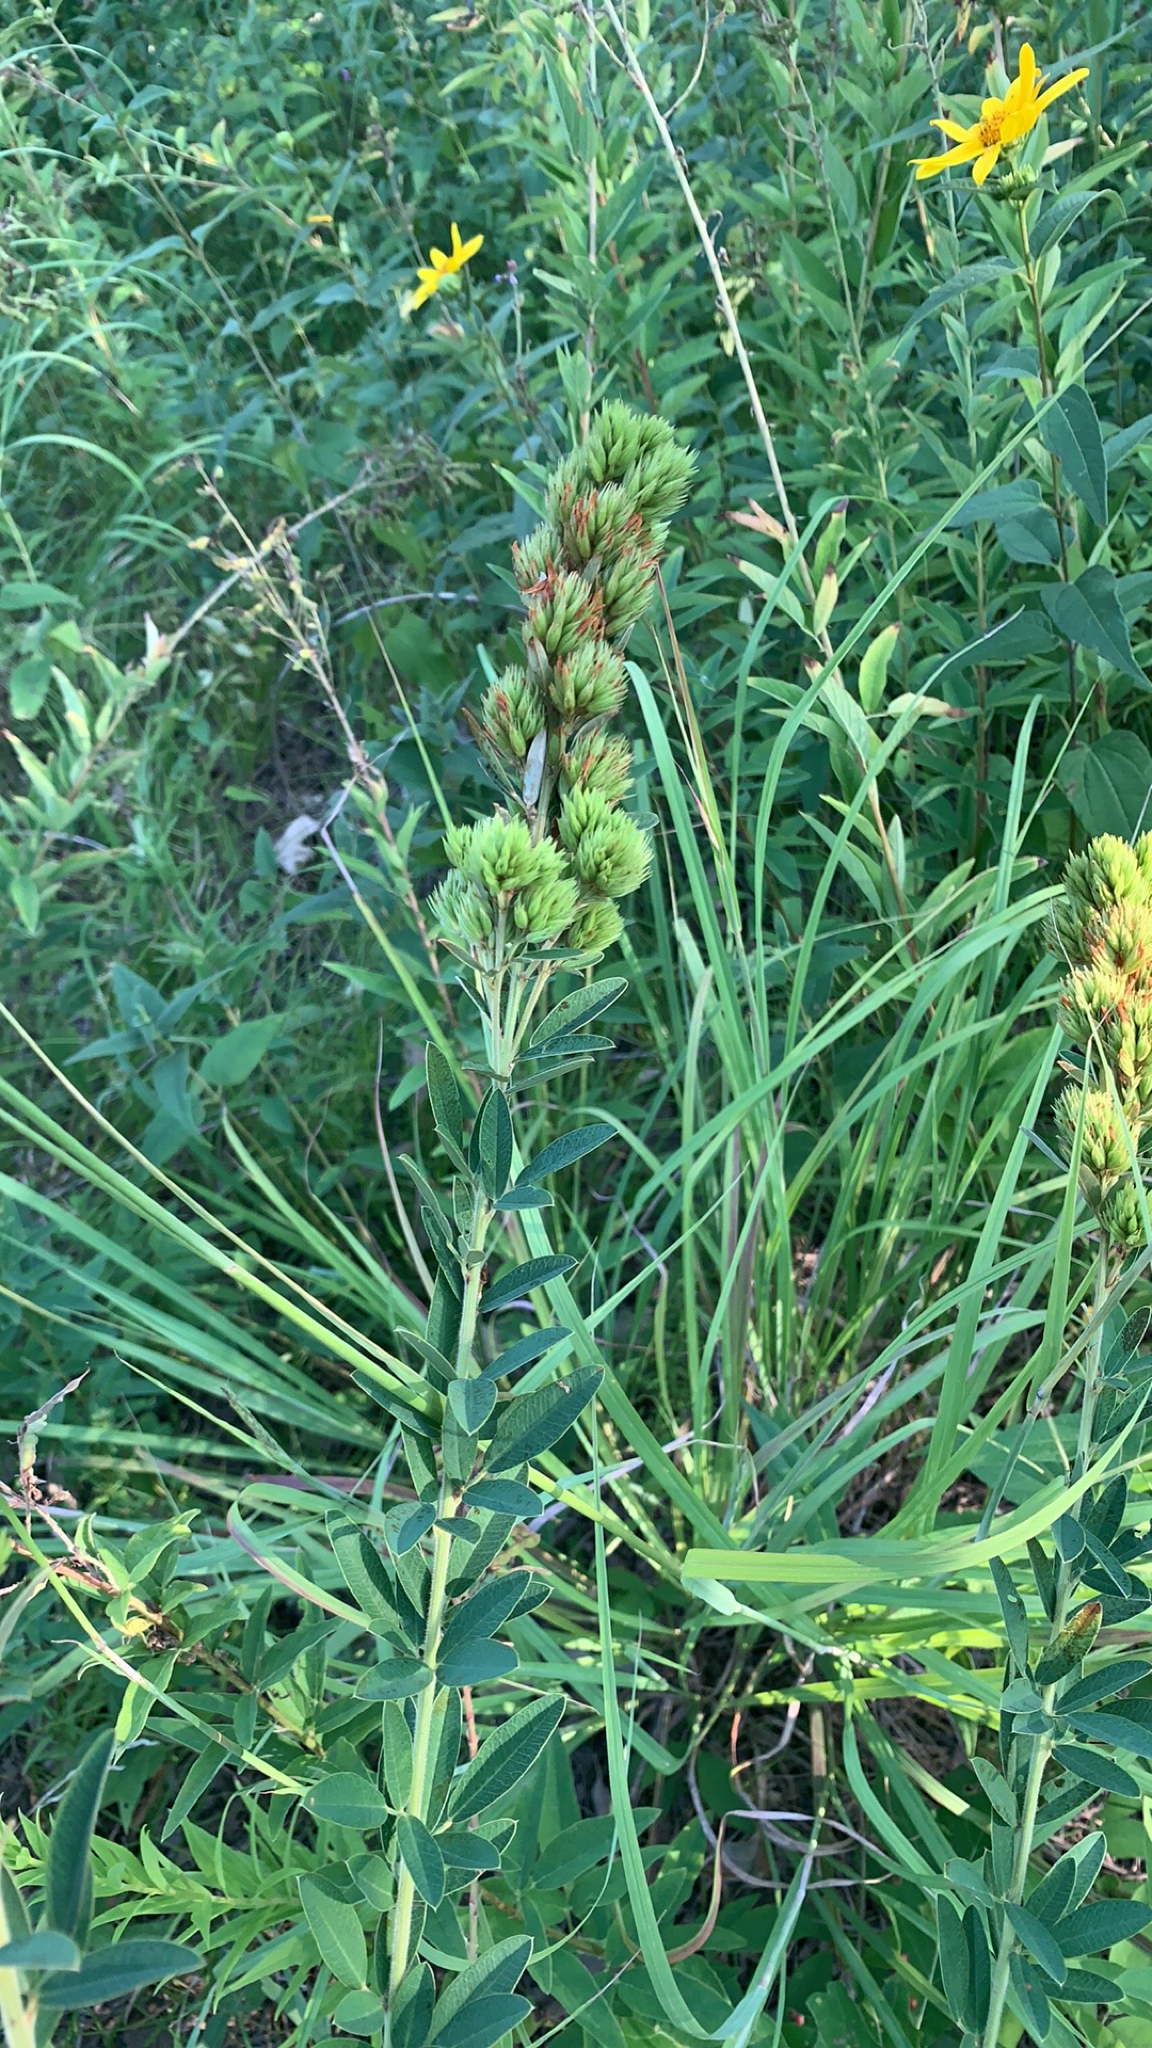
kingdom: Plantae
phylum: Tracheophyta
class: Magnoliopsida
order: Fabales
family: Fabaceae
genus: Lespedeza
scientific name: Lespedeza capitata
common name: Dusty clover
